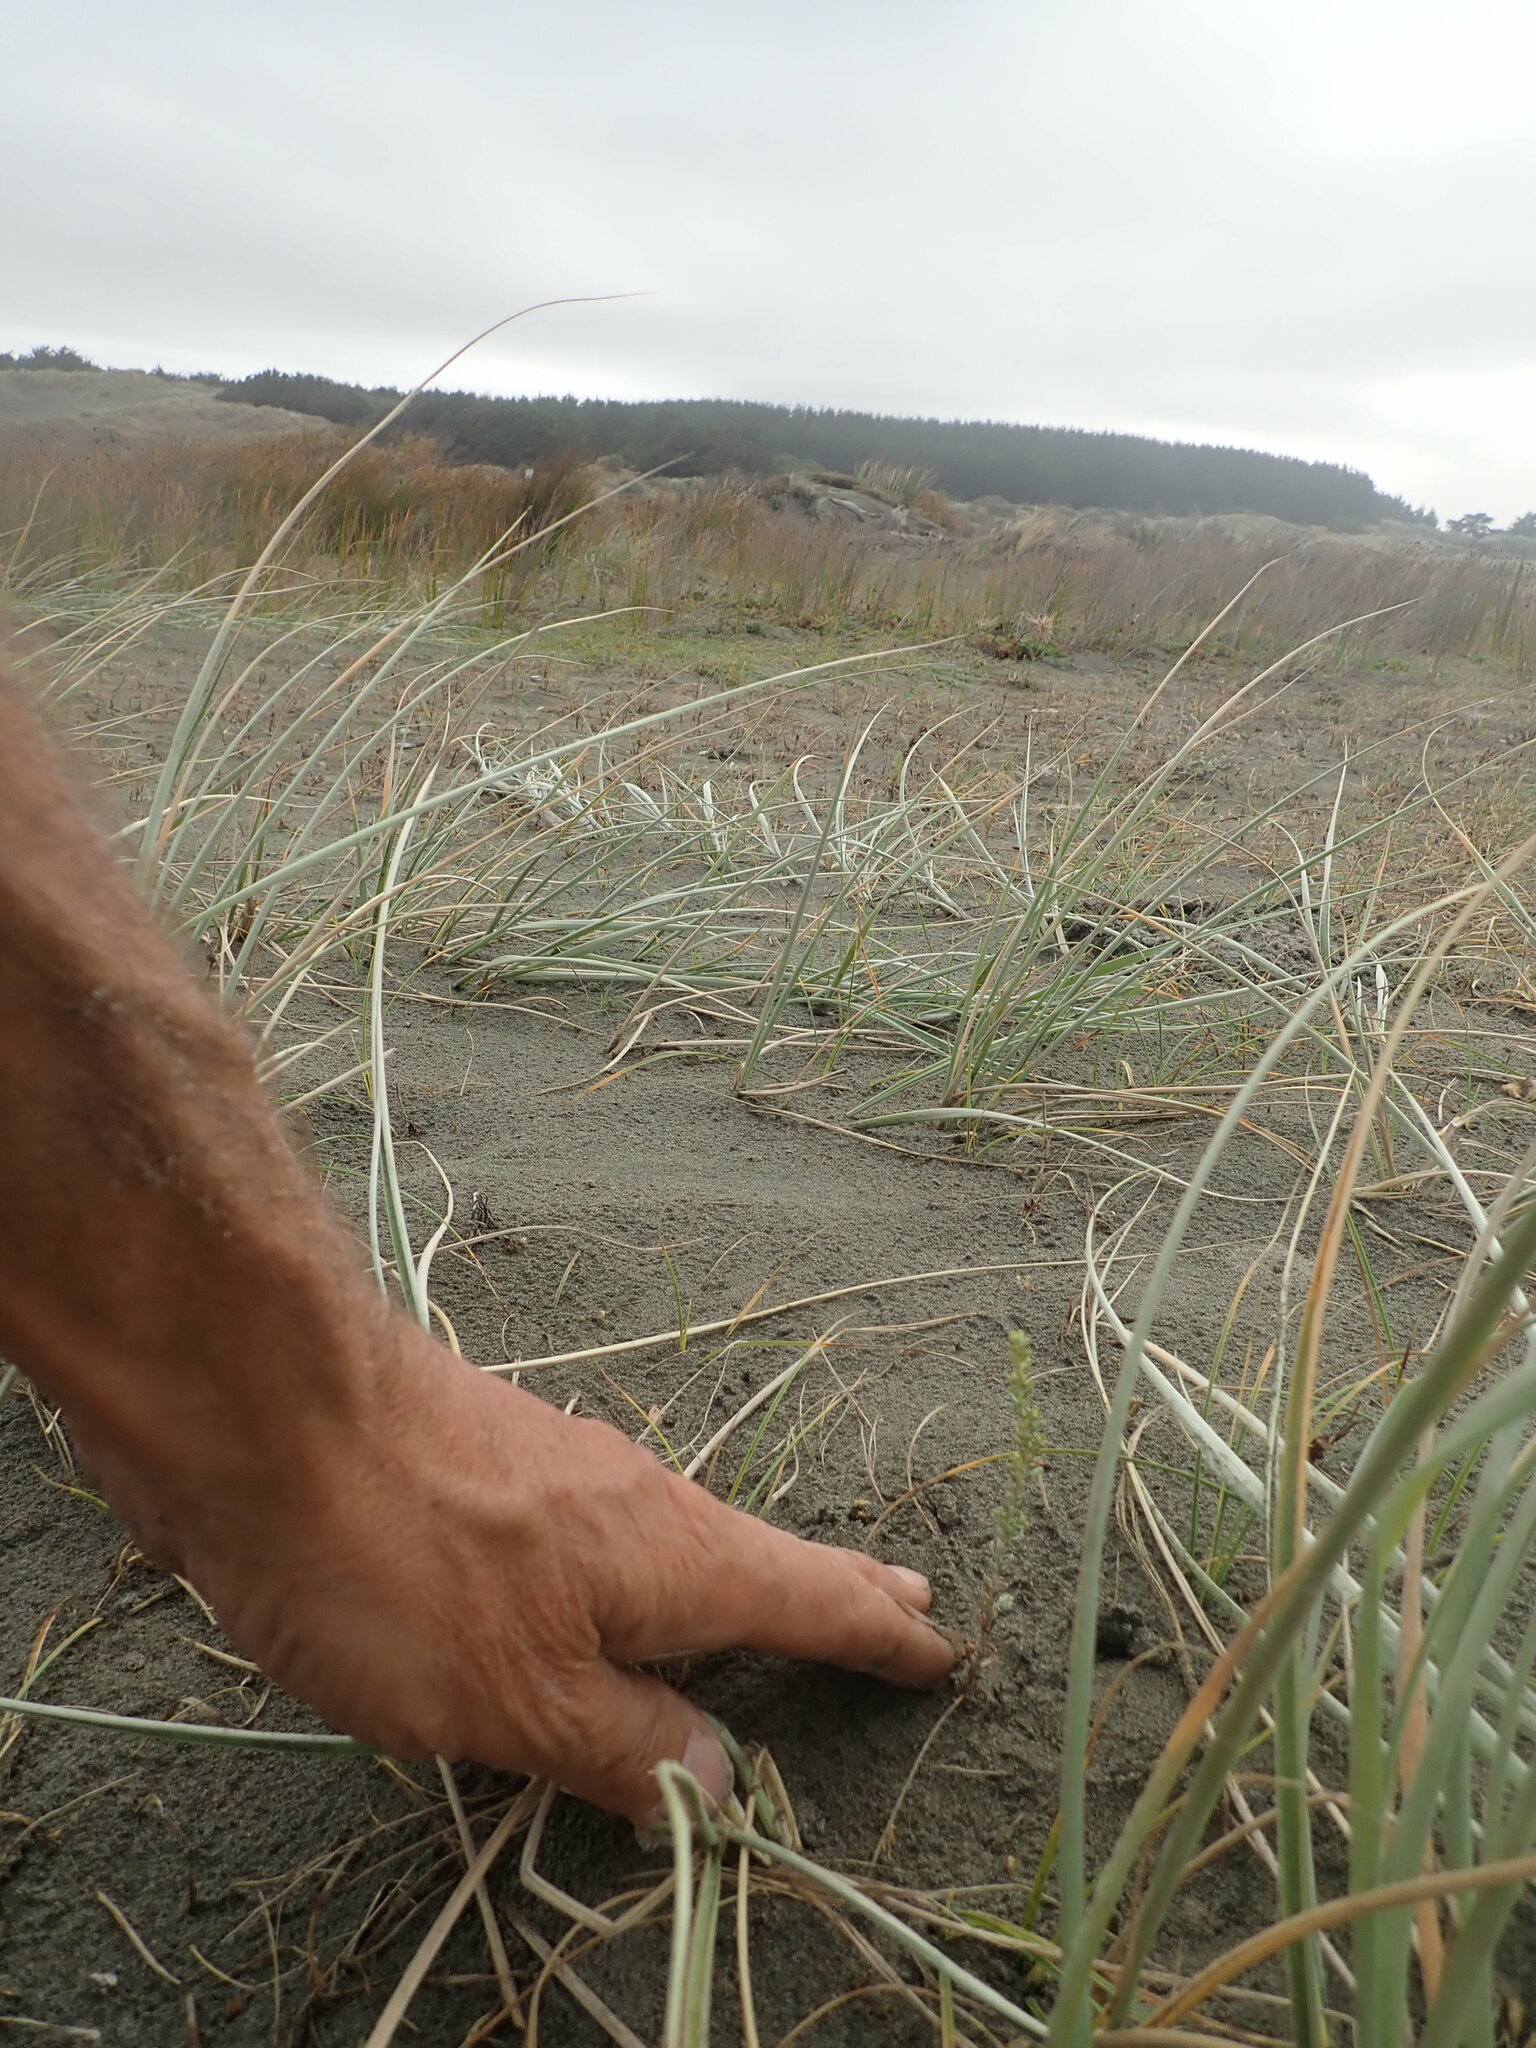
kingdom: Plantae
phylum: Tracheophyta
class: Magnoliopsida
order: Asterales
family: Asteraceae
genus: Ozothamnus
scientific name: Ozothamnus leptophyllus
